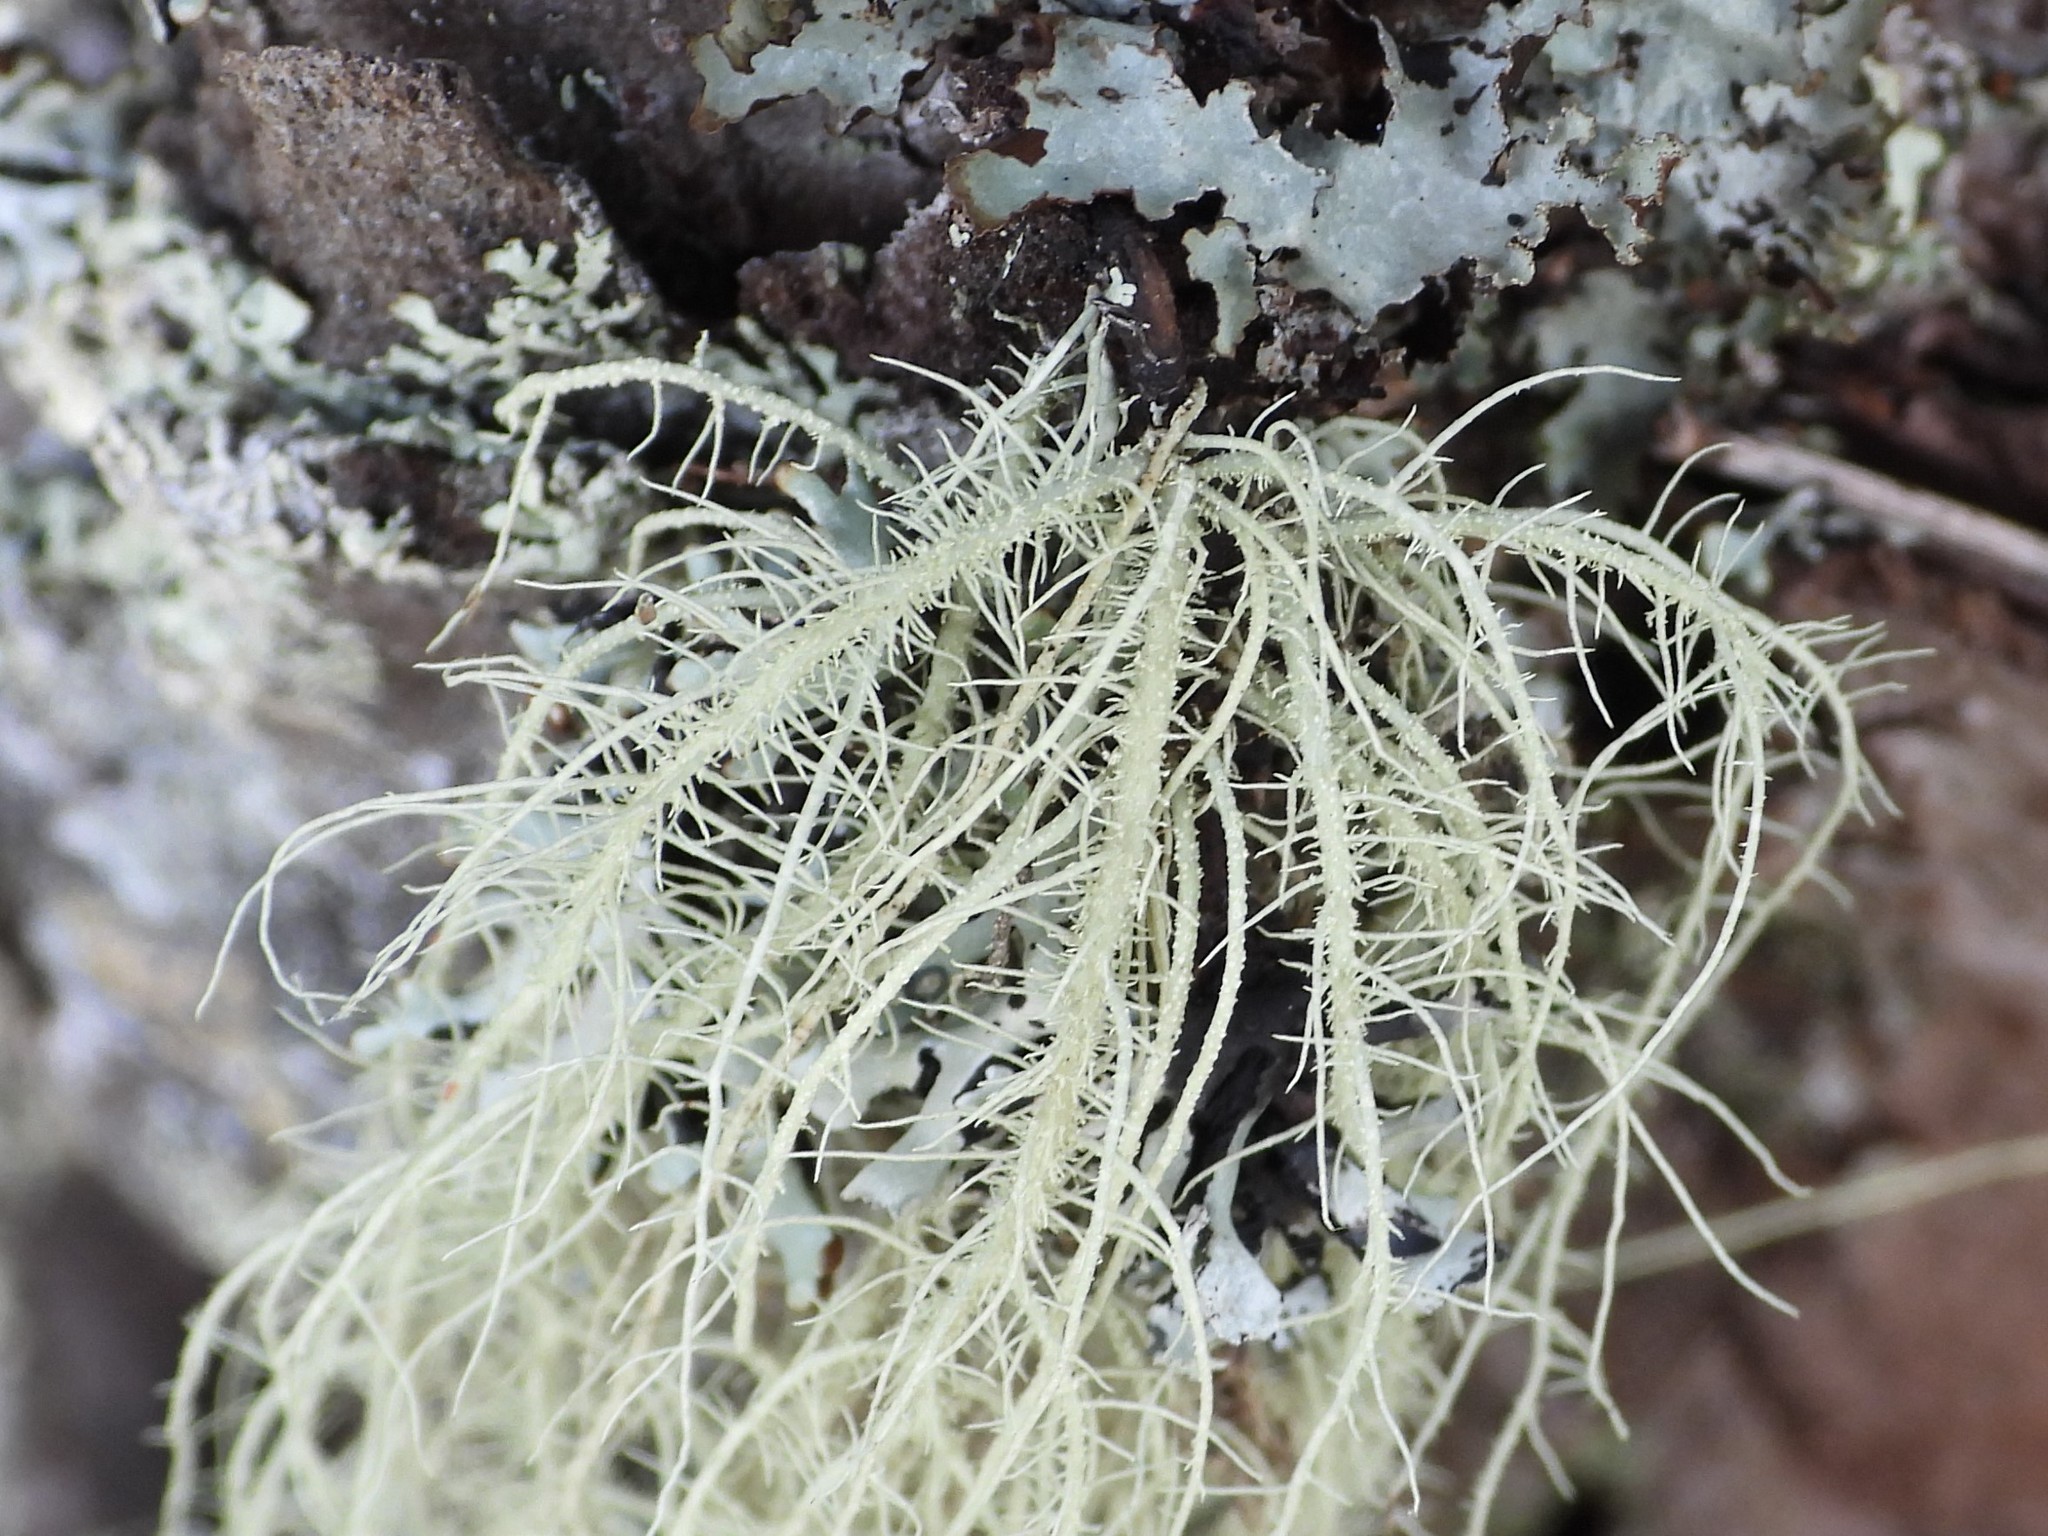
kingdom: Fungi
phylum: Ascomycota
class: Lecanoromycetes
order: Lecanorales
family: Parmeliaceae
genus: Usnea
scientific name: Usnea dasopoga
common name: Fishbone beard lichen
